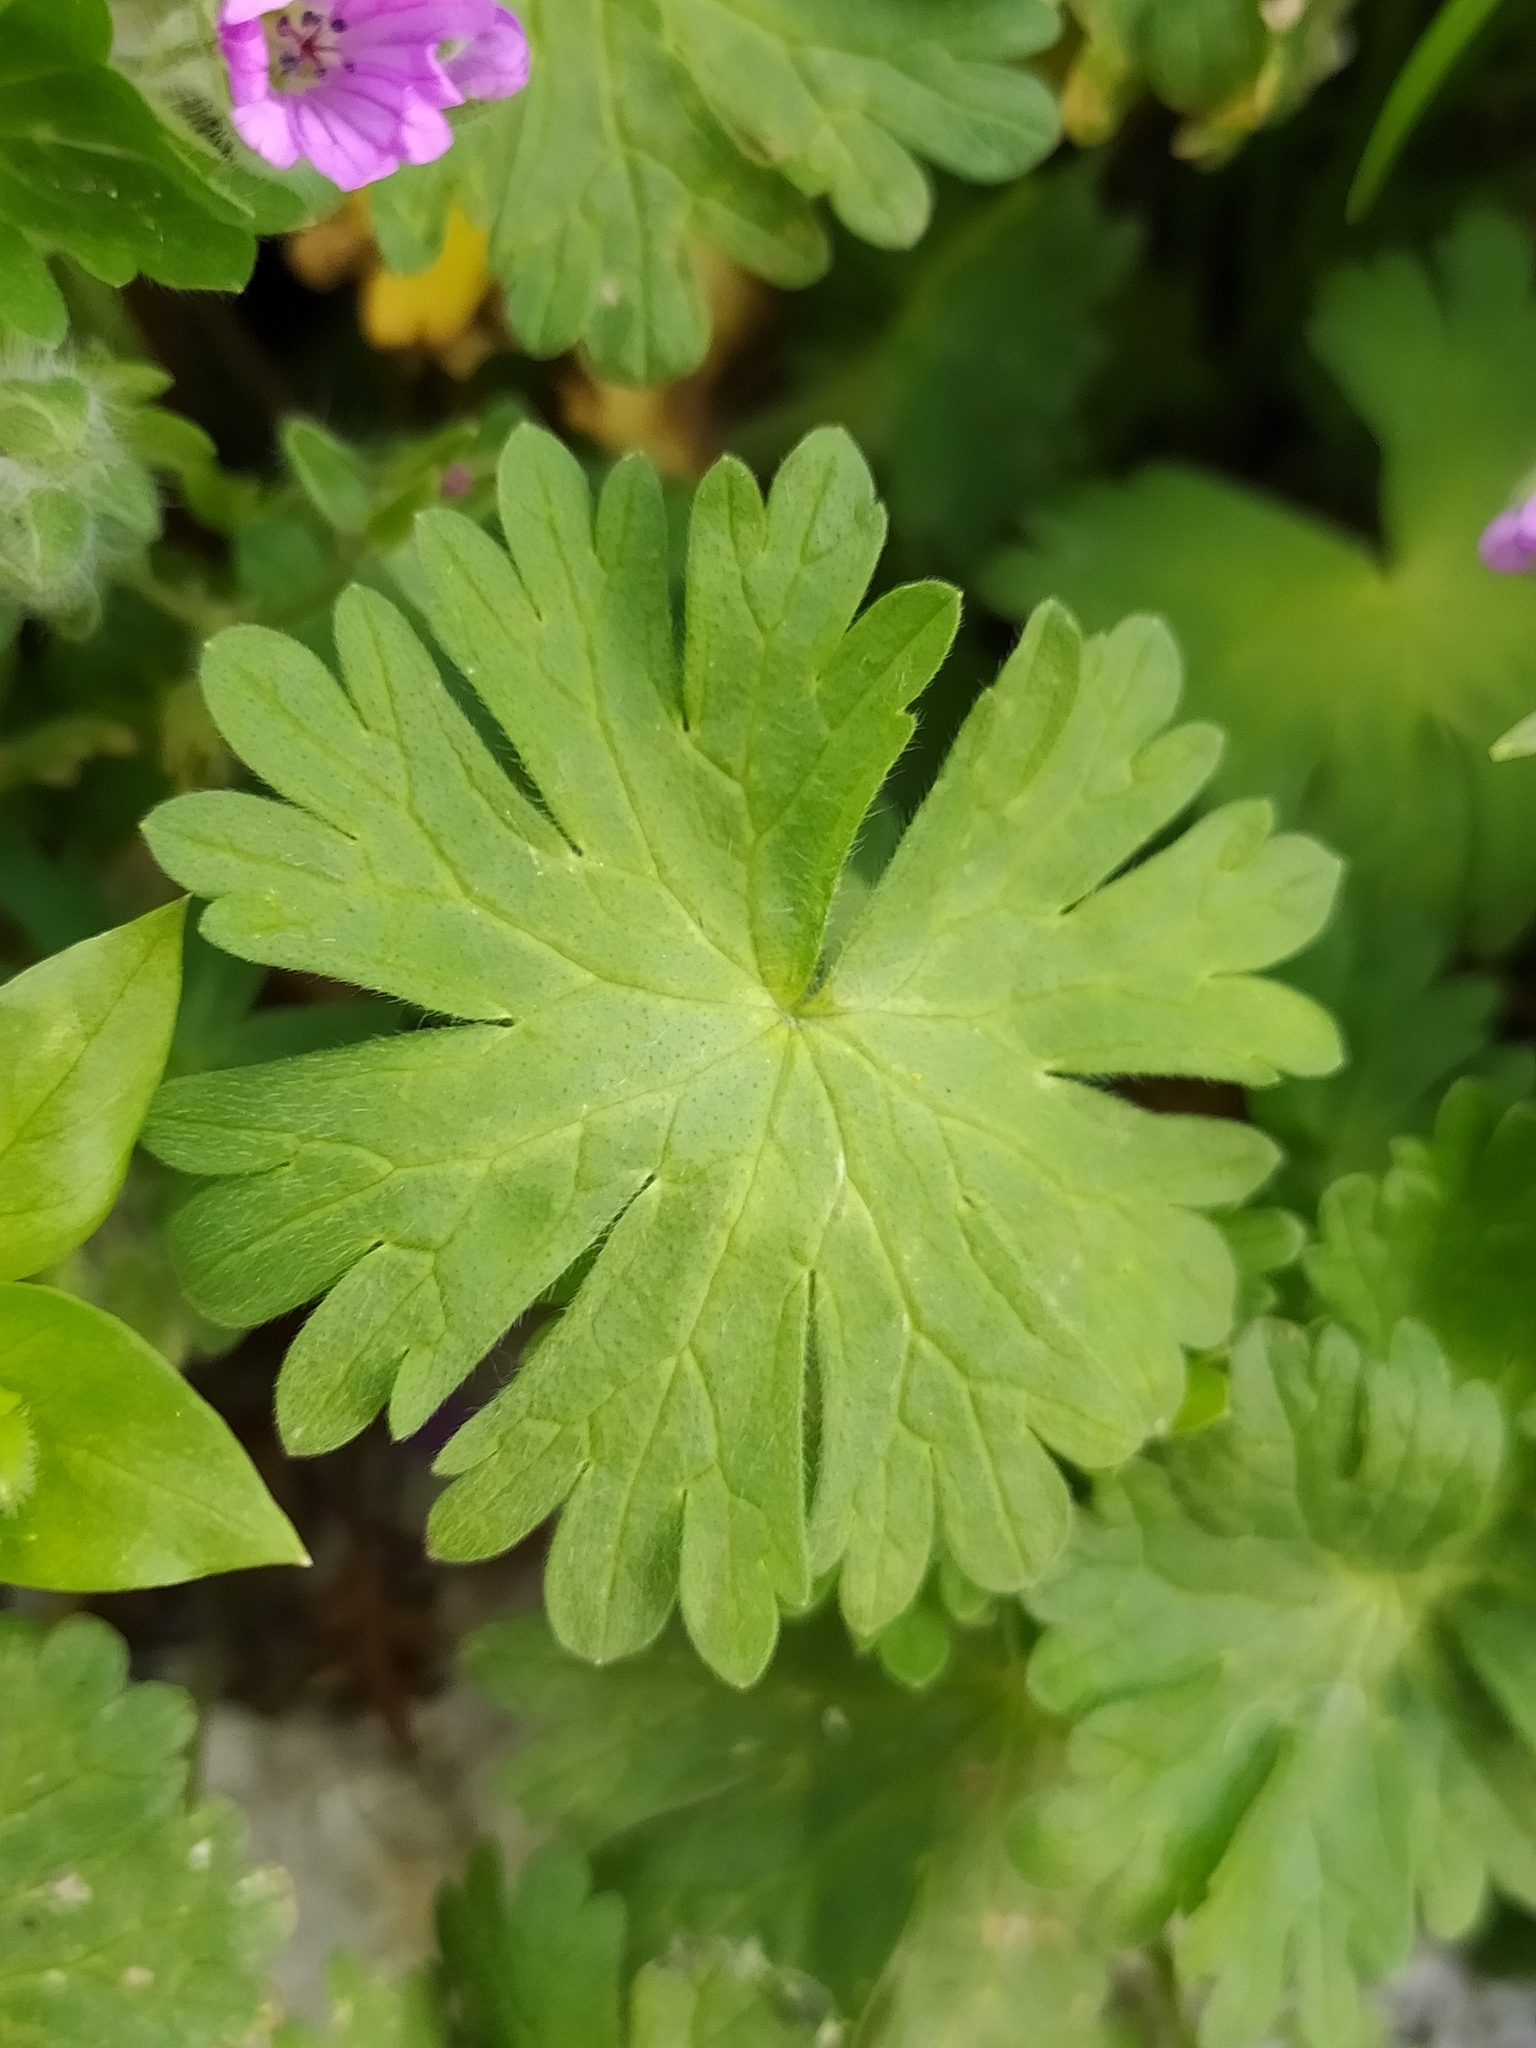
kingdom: Plantae
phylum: Tracheophyta
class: Magnoliopsida
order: Geraniales
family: Geraniaceae
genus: Geranium
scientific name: Geranium molle
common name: Dove's-foot crane's-bill
